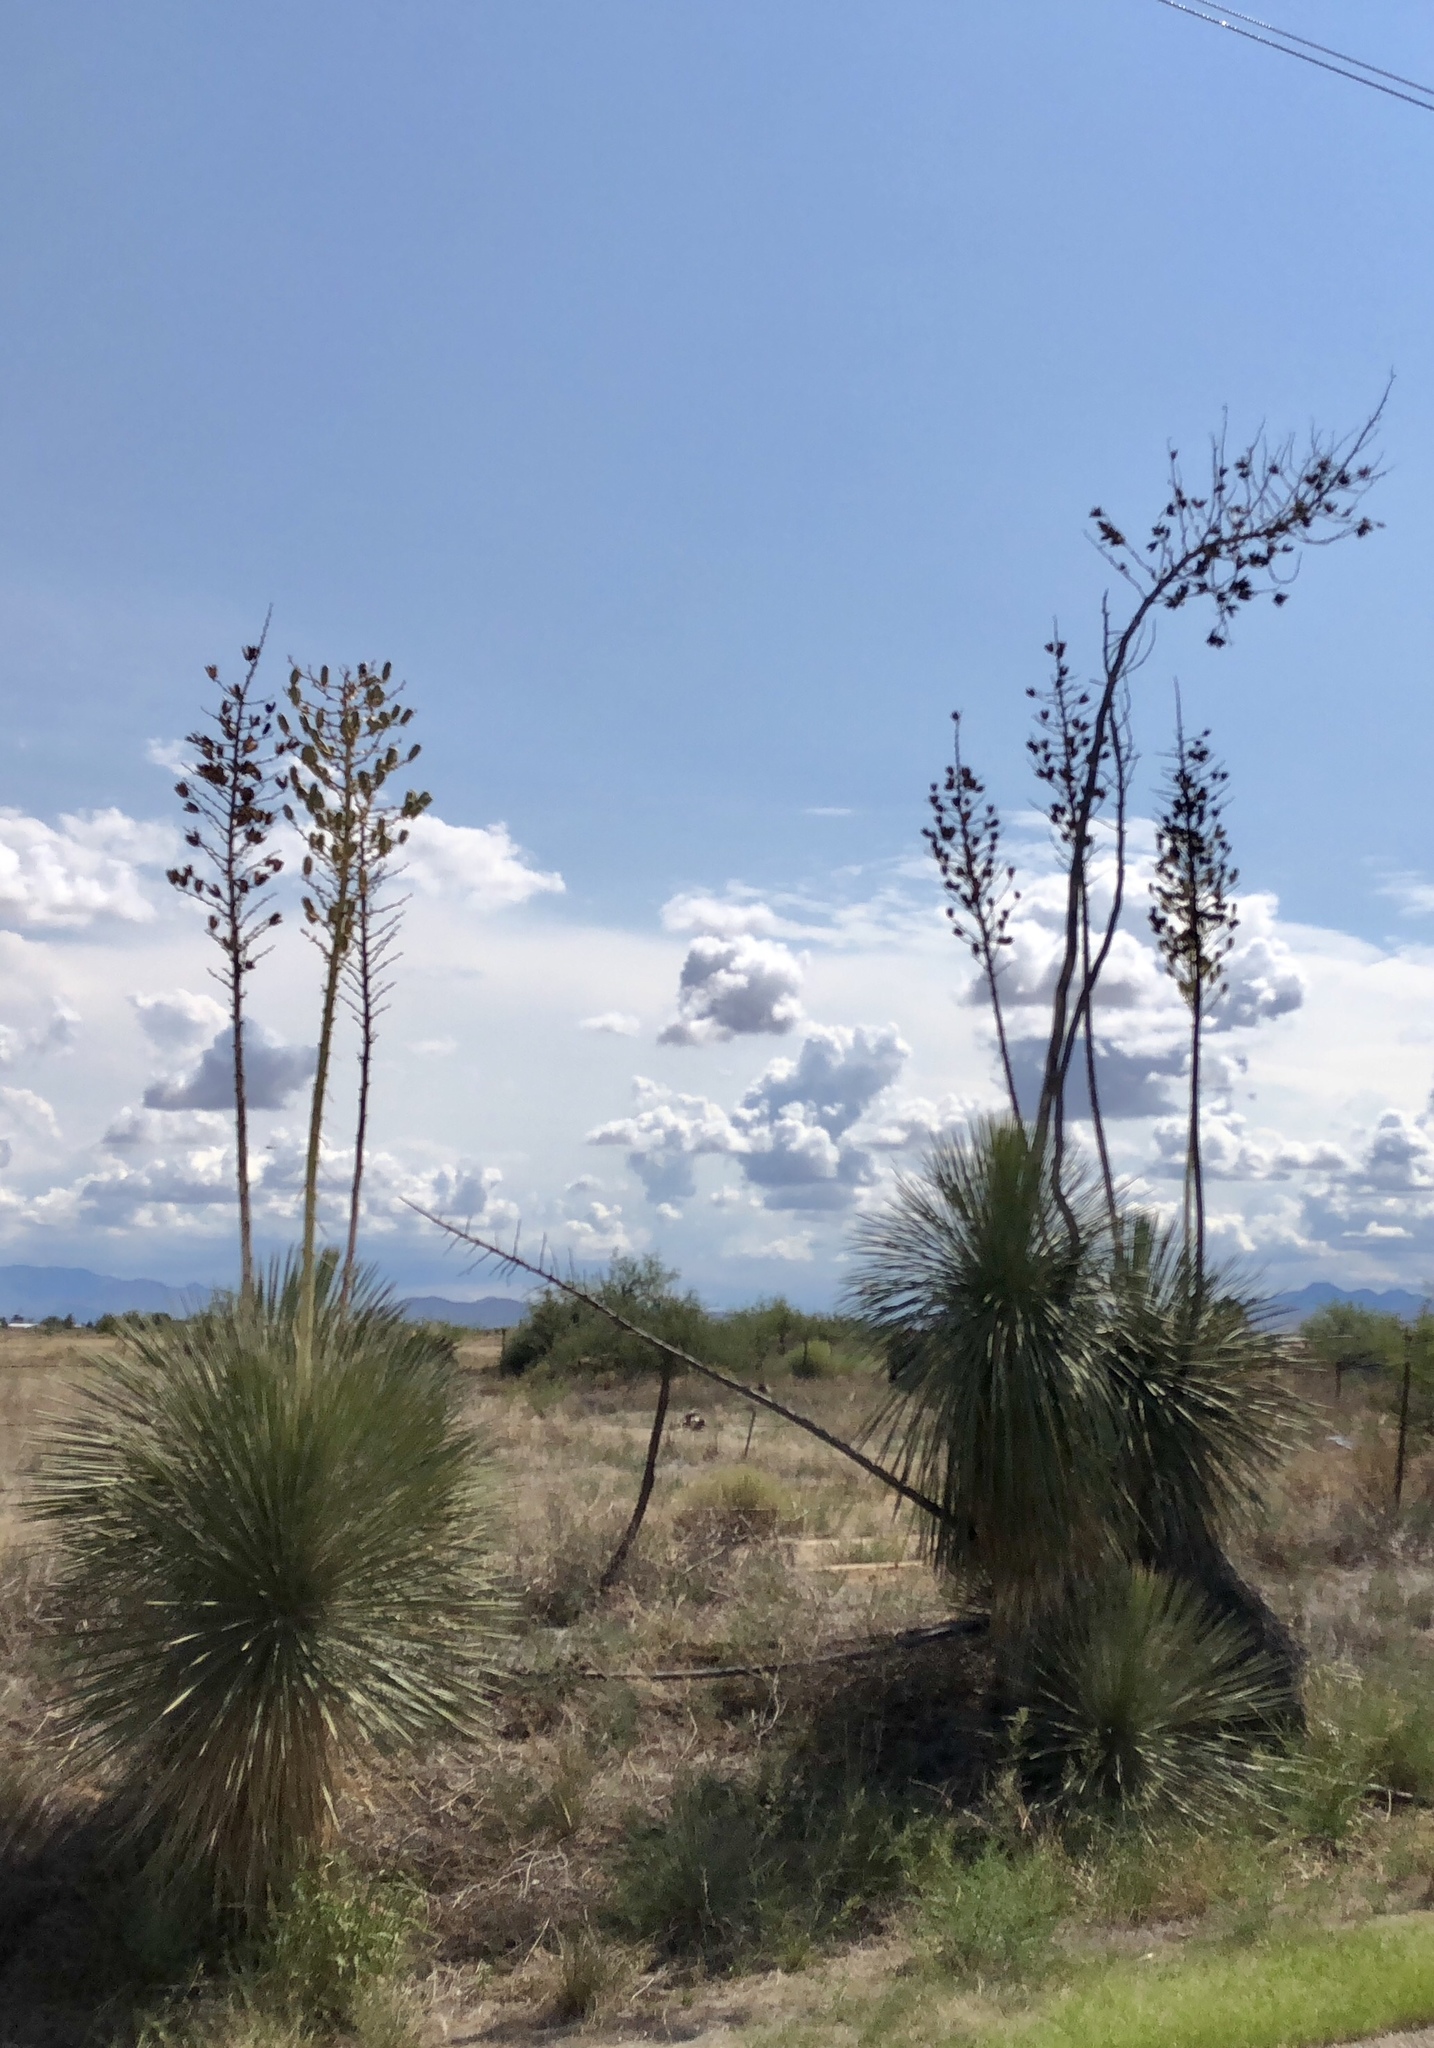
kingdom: Plantae
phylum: Tracheophyta
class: Liliopsida
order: Asparagales
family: Asparagaceae
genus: Yucca
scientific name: Yucca elata
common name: Palmella
